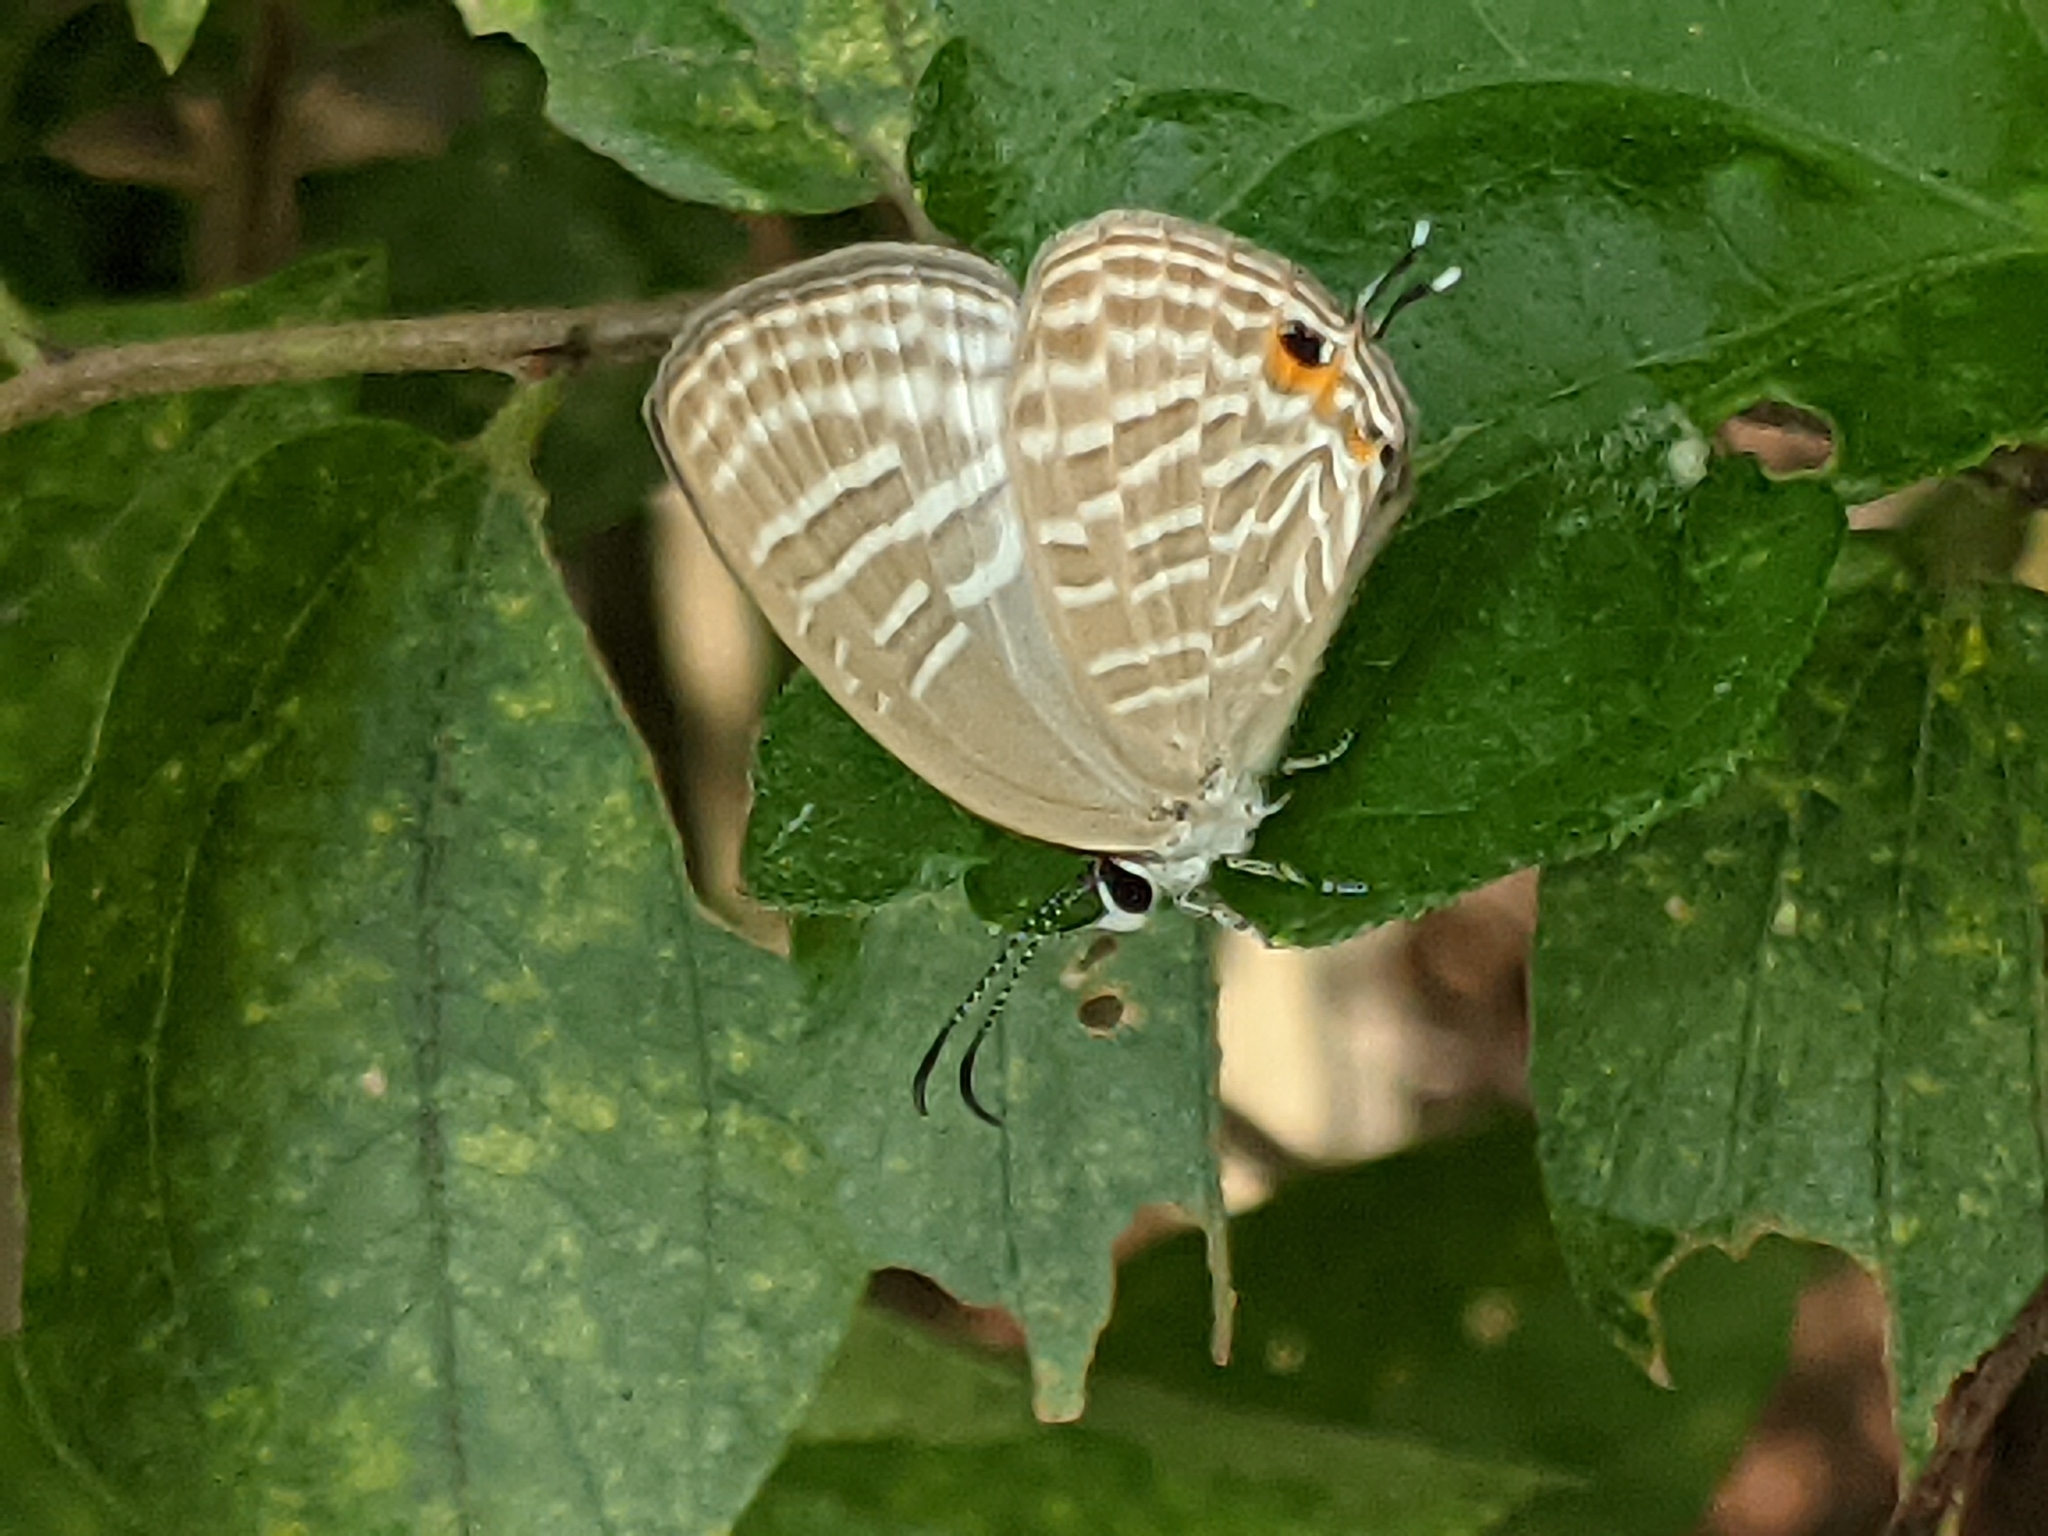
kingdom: Animalia
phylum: Arthropoda
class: Insecta
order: Lepidoptera
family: Lycaenidae
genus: Jamides
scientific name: Jamides celeno
